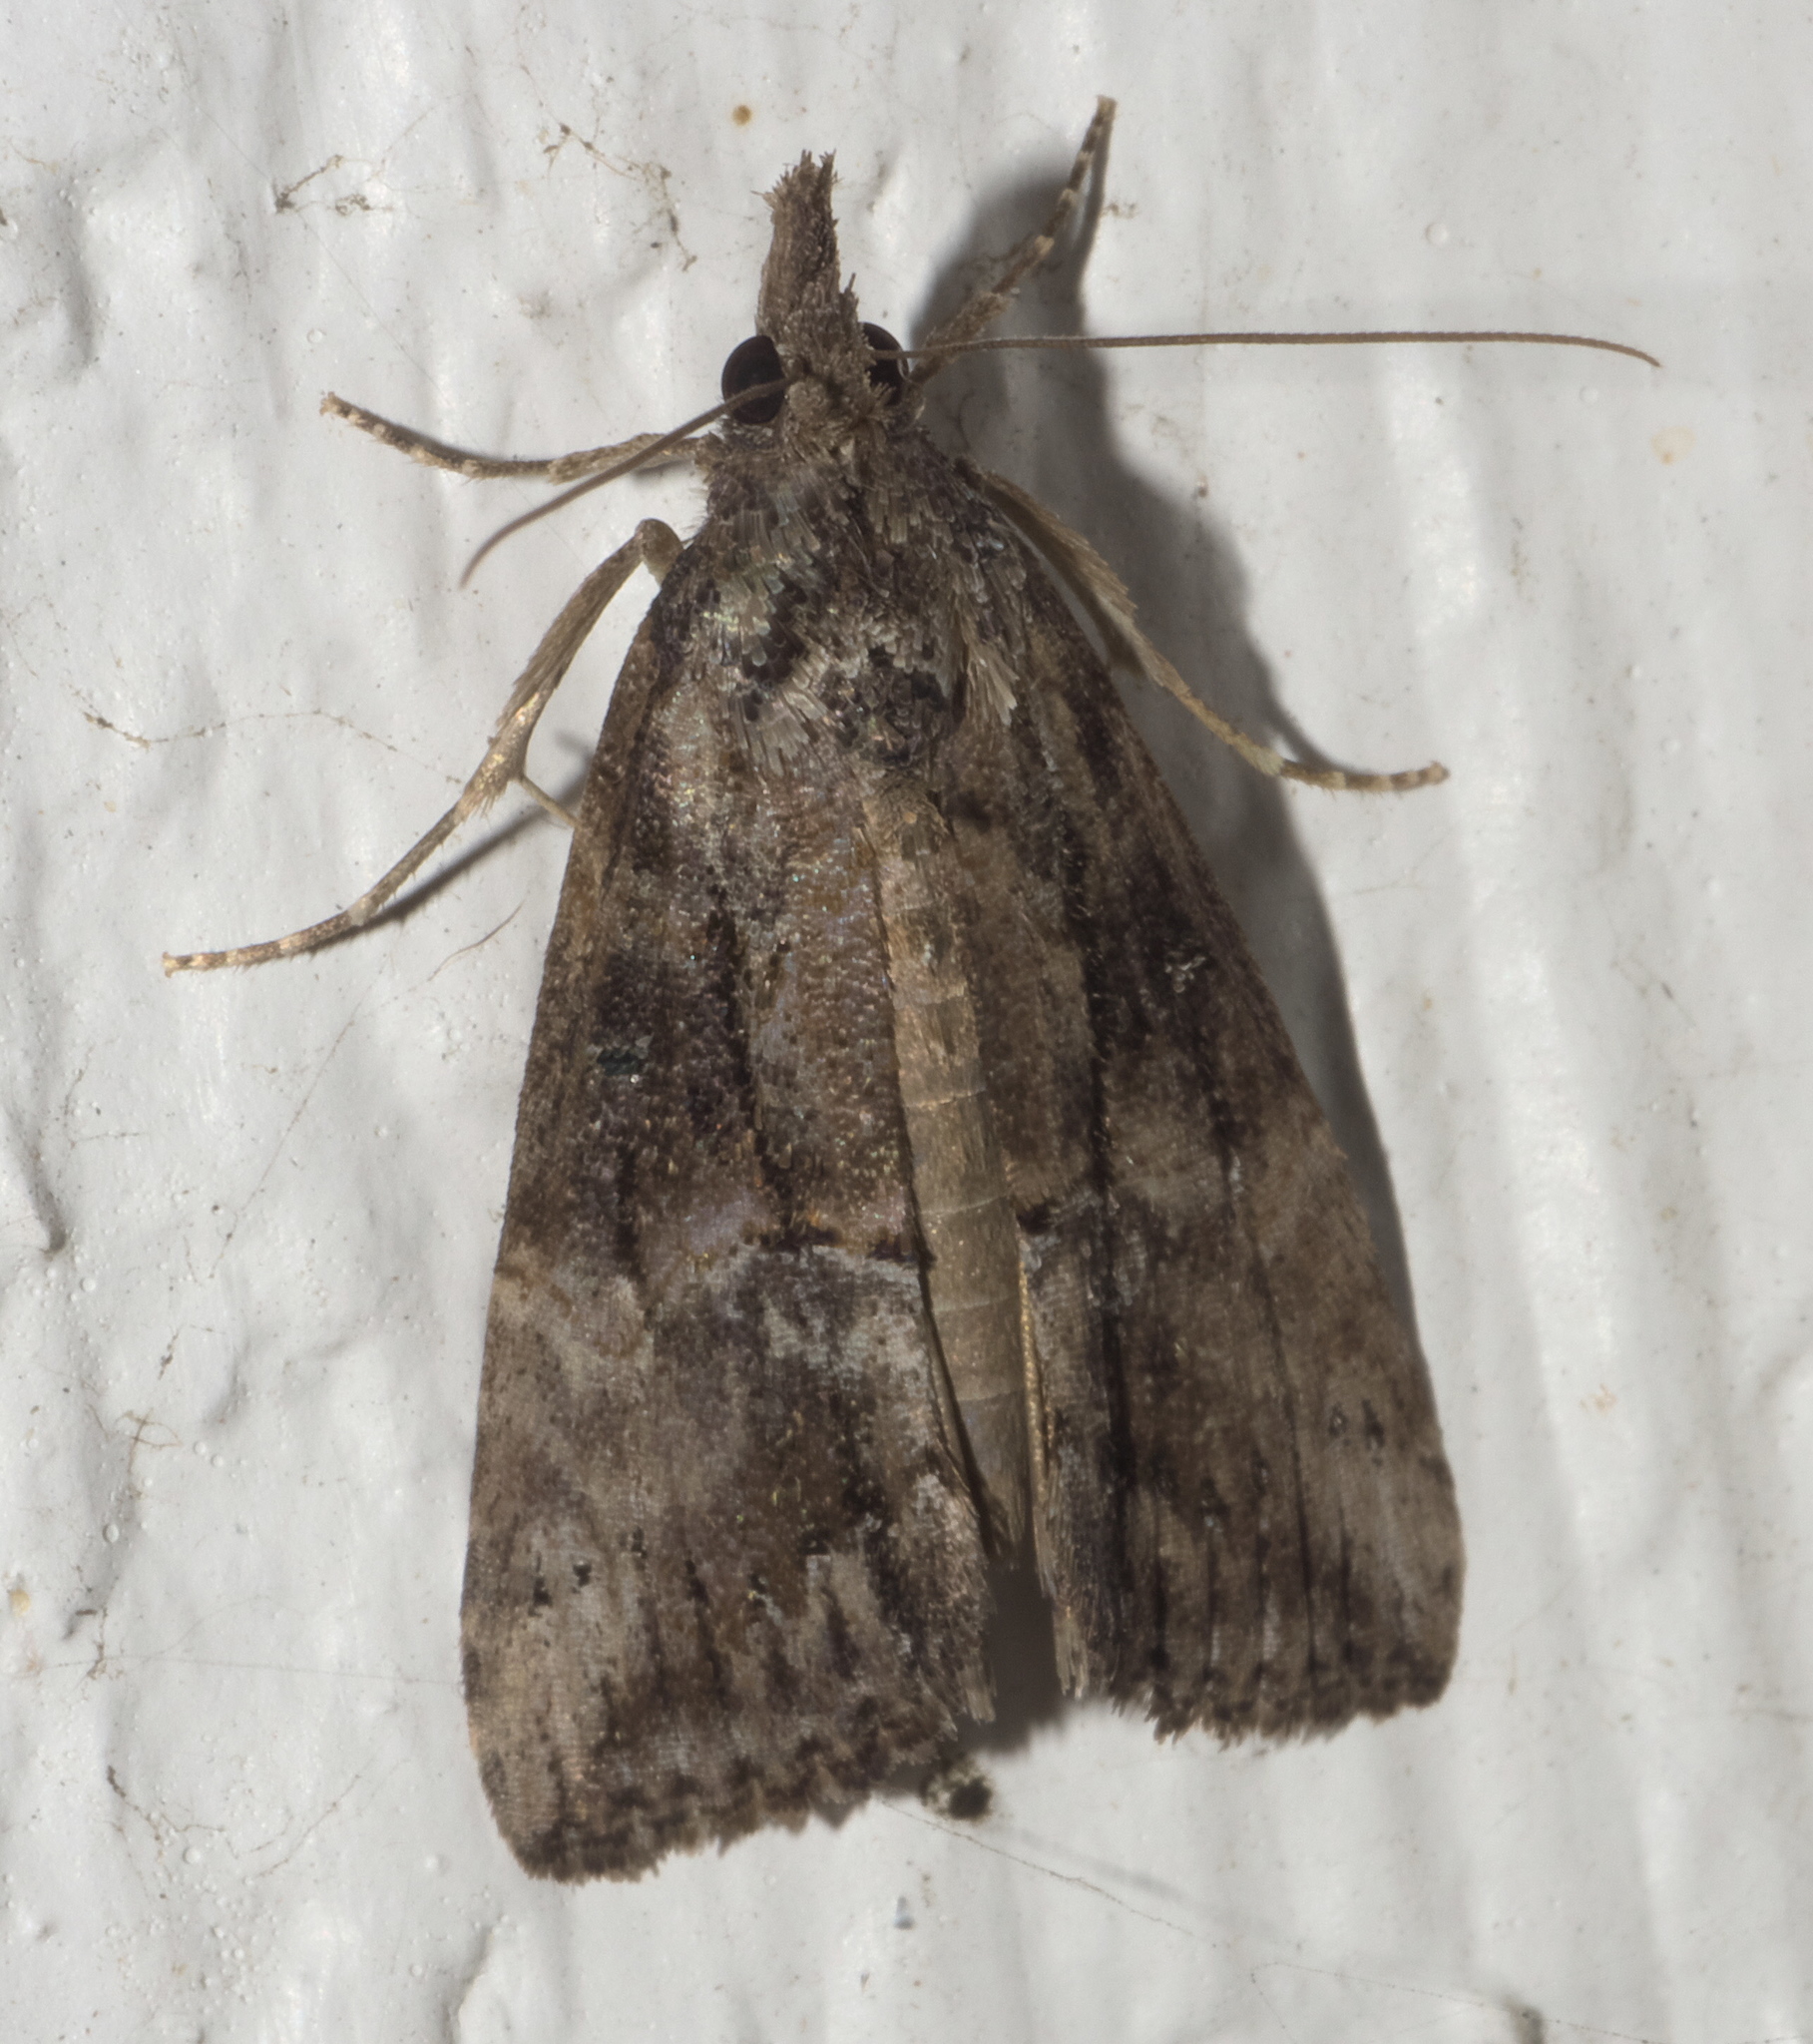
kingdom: Animalia
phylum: Arthropoda
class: Insecta
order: Lepidoptera
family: Erebidae
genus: Hypena
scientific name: Hypena scabra
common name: Green cloverworm
